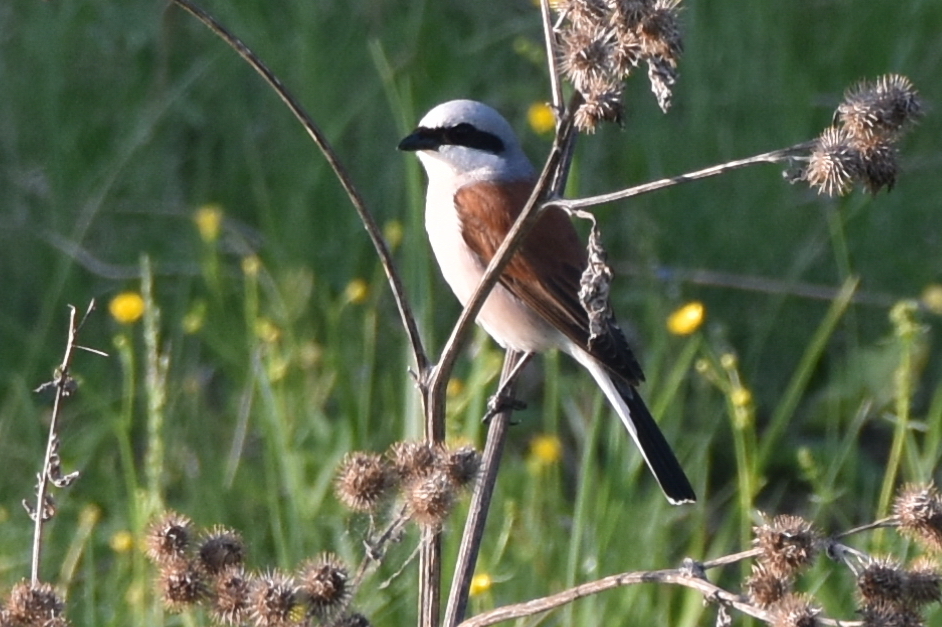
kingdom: Animalia
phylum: Chordata
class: Aves
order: Passeriformes
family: Laniidae
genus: Lanius
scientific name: Lanius collurio
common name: Red-backed shrike
